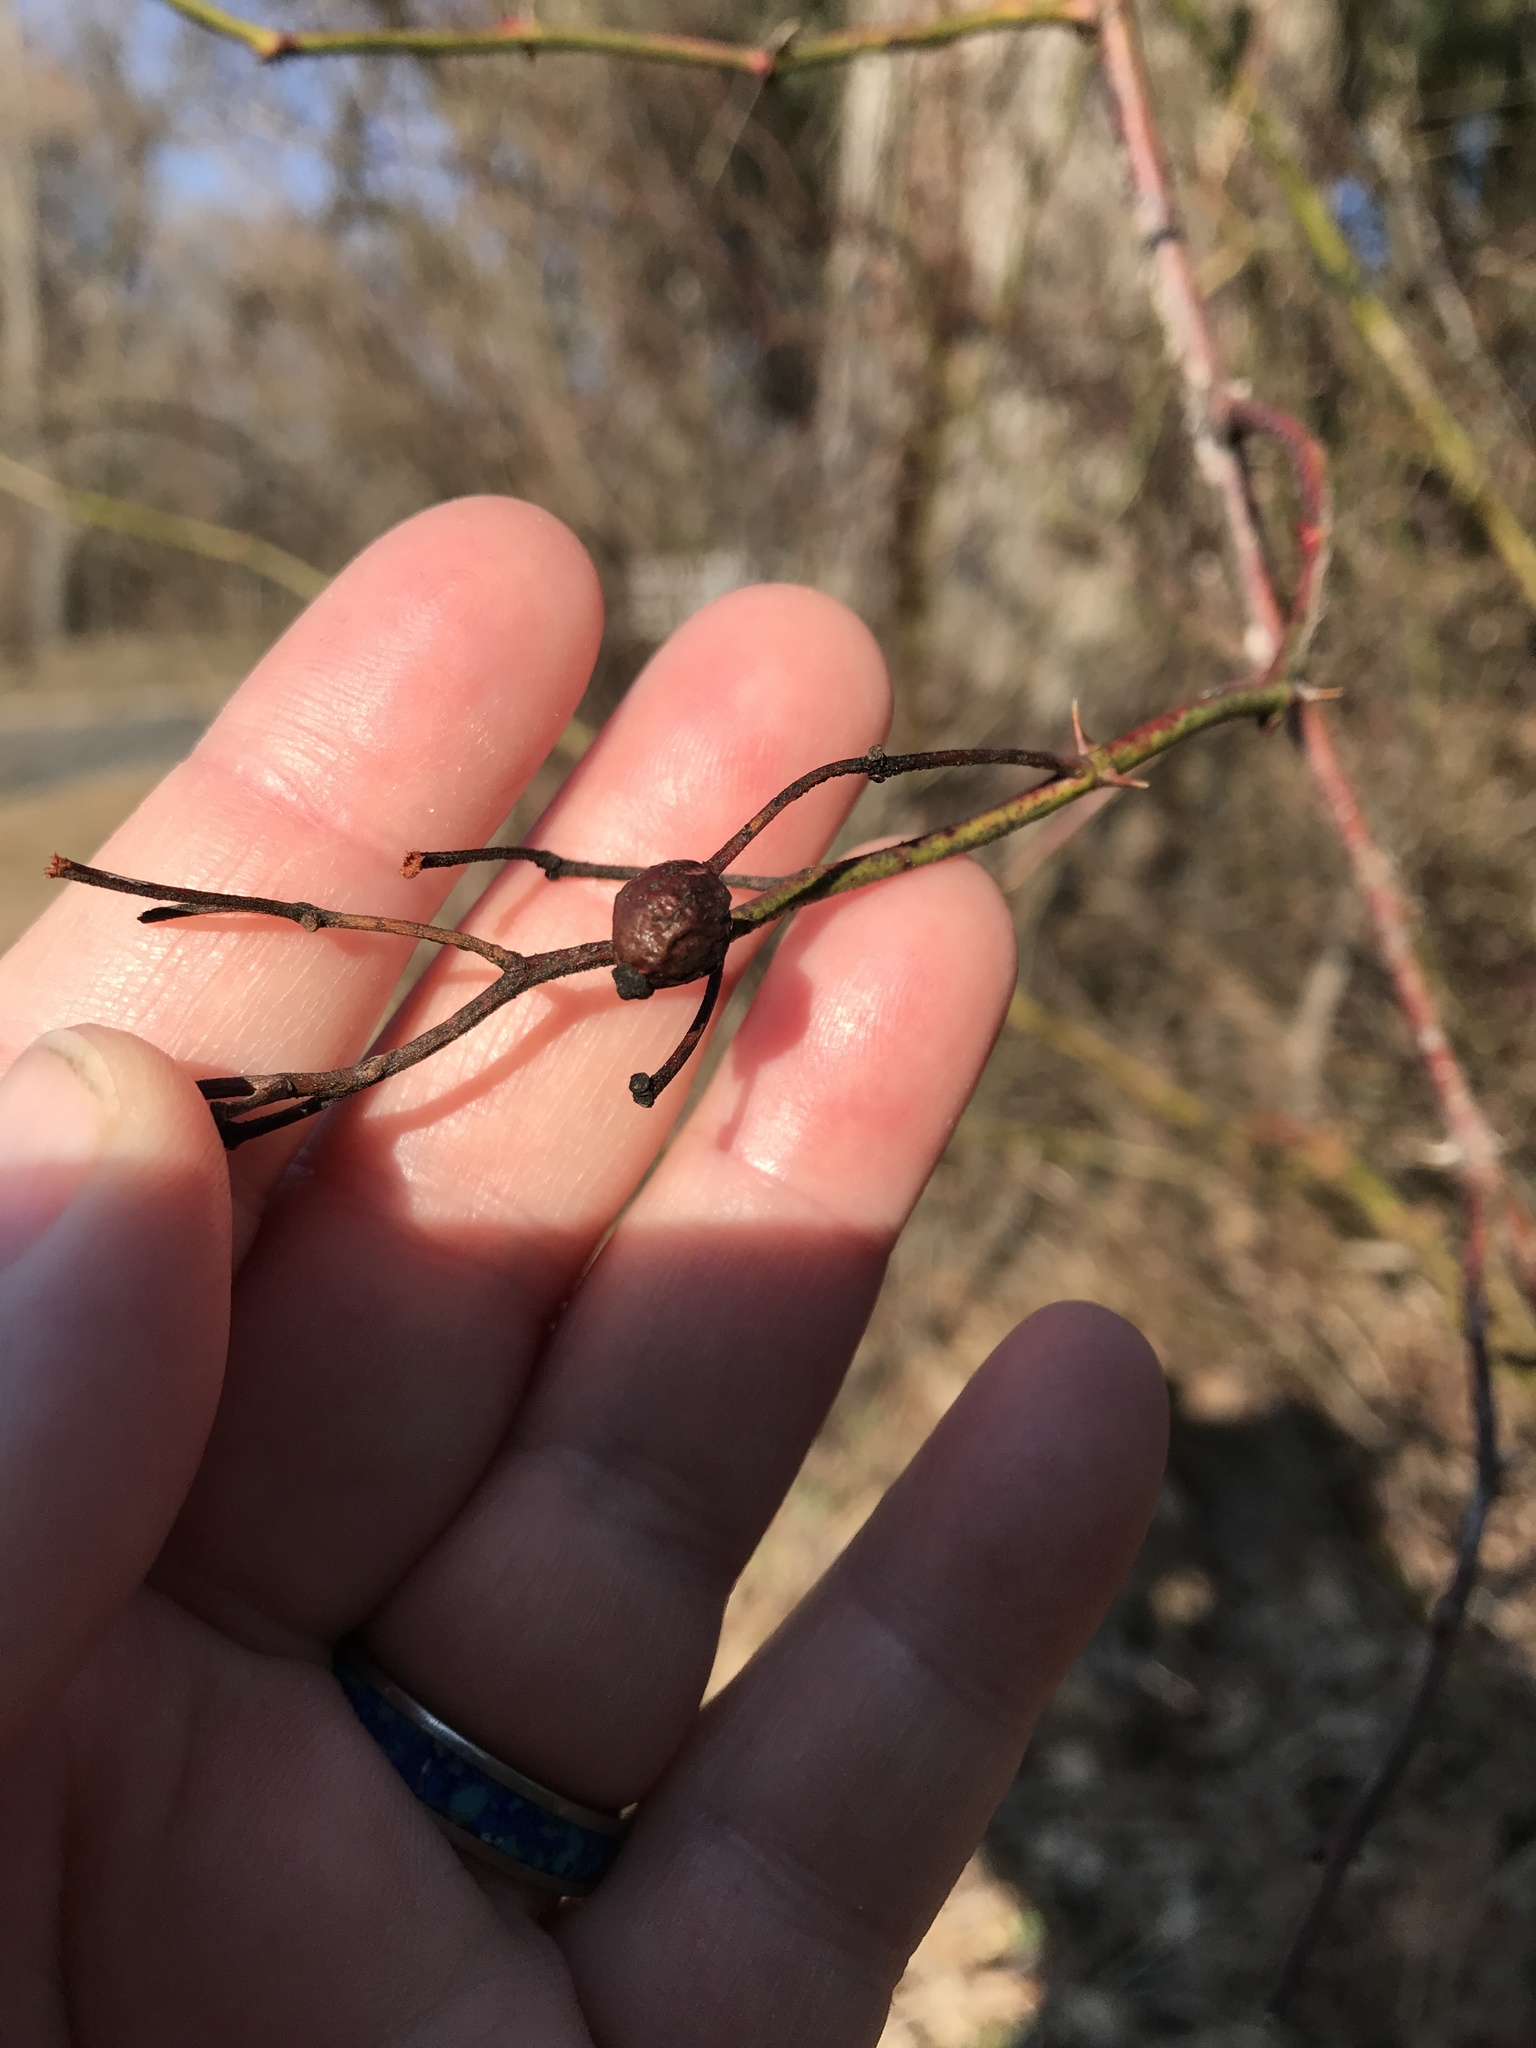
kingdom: Plantae
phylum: Tracheophyta
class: Magnoliopsida
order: Rosales
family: Rosaceae
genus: Rosa
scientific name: Rosa multiflora
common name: Multiflora rose
